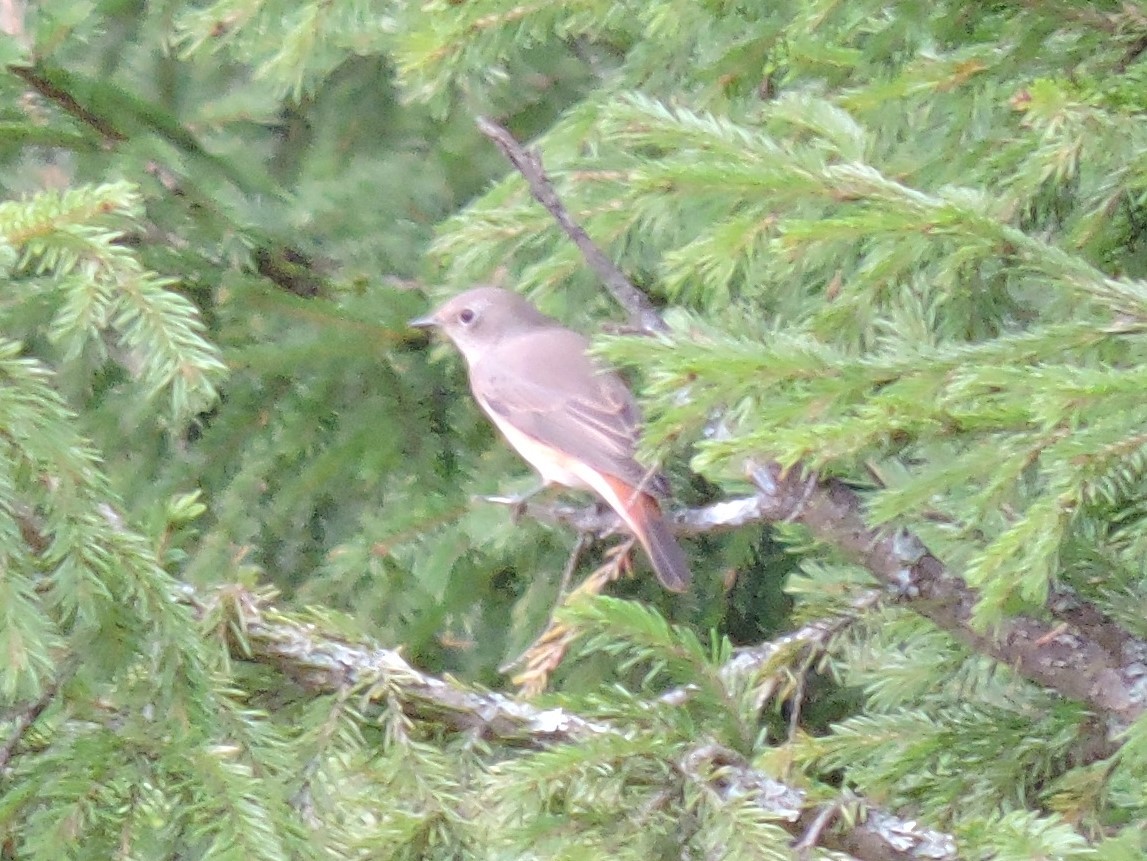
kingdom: Animalia
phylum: Chordata
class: Aves
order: Passeriformes
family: Muscicapidae
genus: Phoenicurus
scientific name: Phoenicurus phoenicurus
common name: Common redstart
